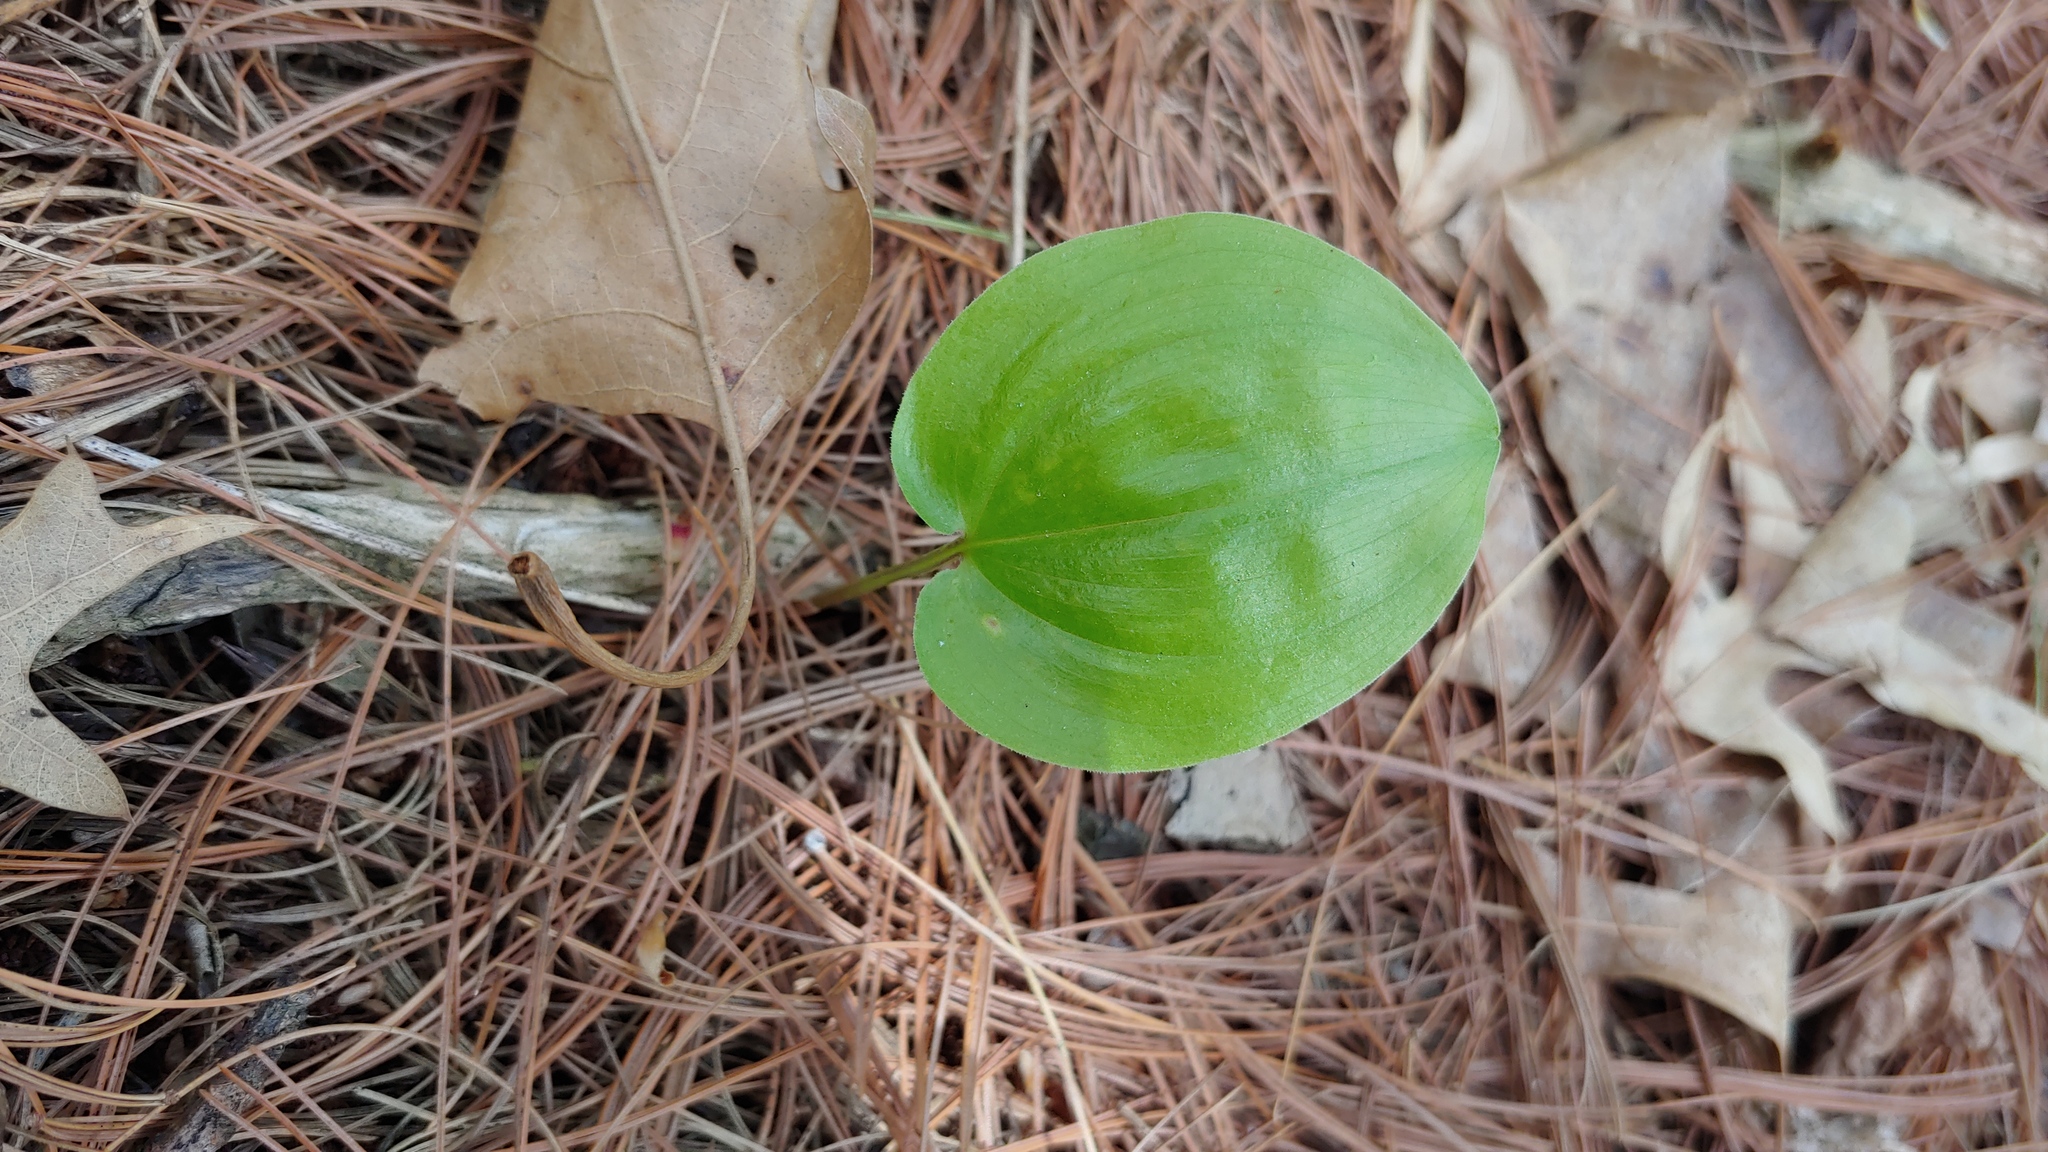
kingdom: Plantae
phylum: Tracheophyta
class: Liliopsida
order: Asparagales
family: Asparagaceae
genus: Maianthemum
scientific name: Maianthemum canadense
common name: False lily-of-the-valley
